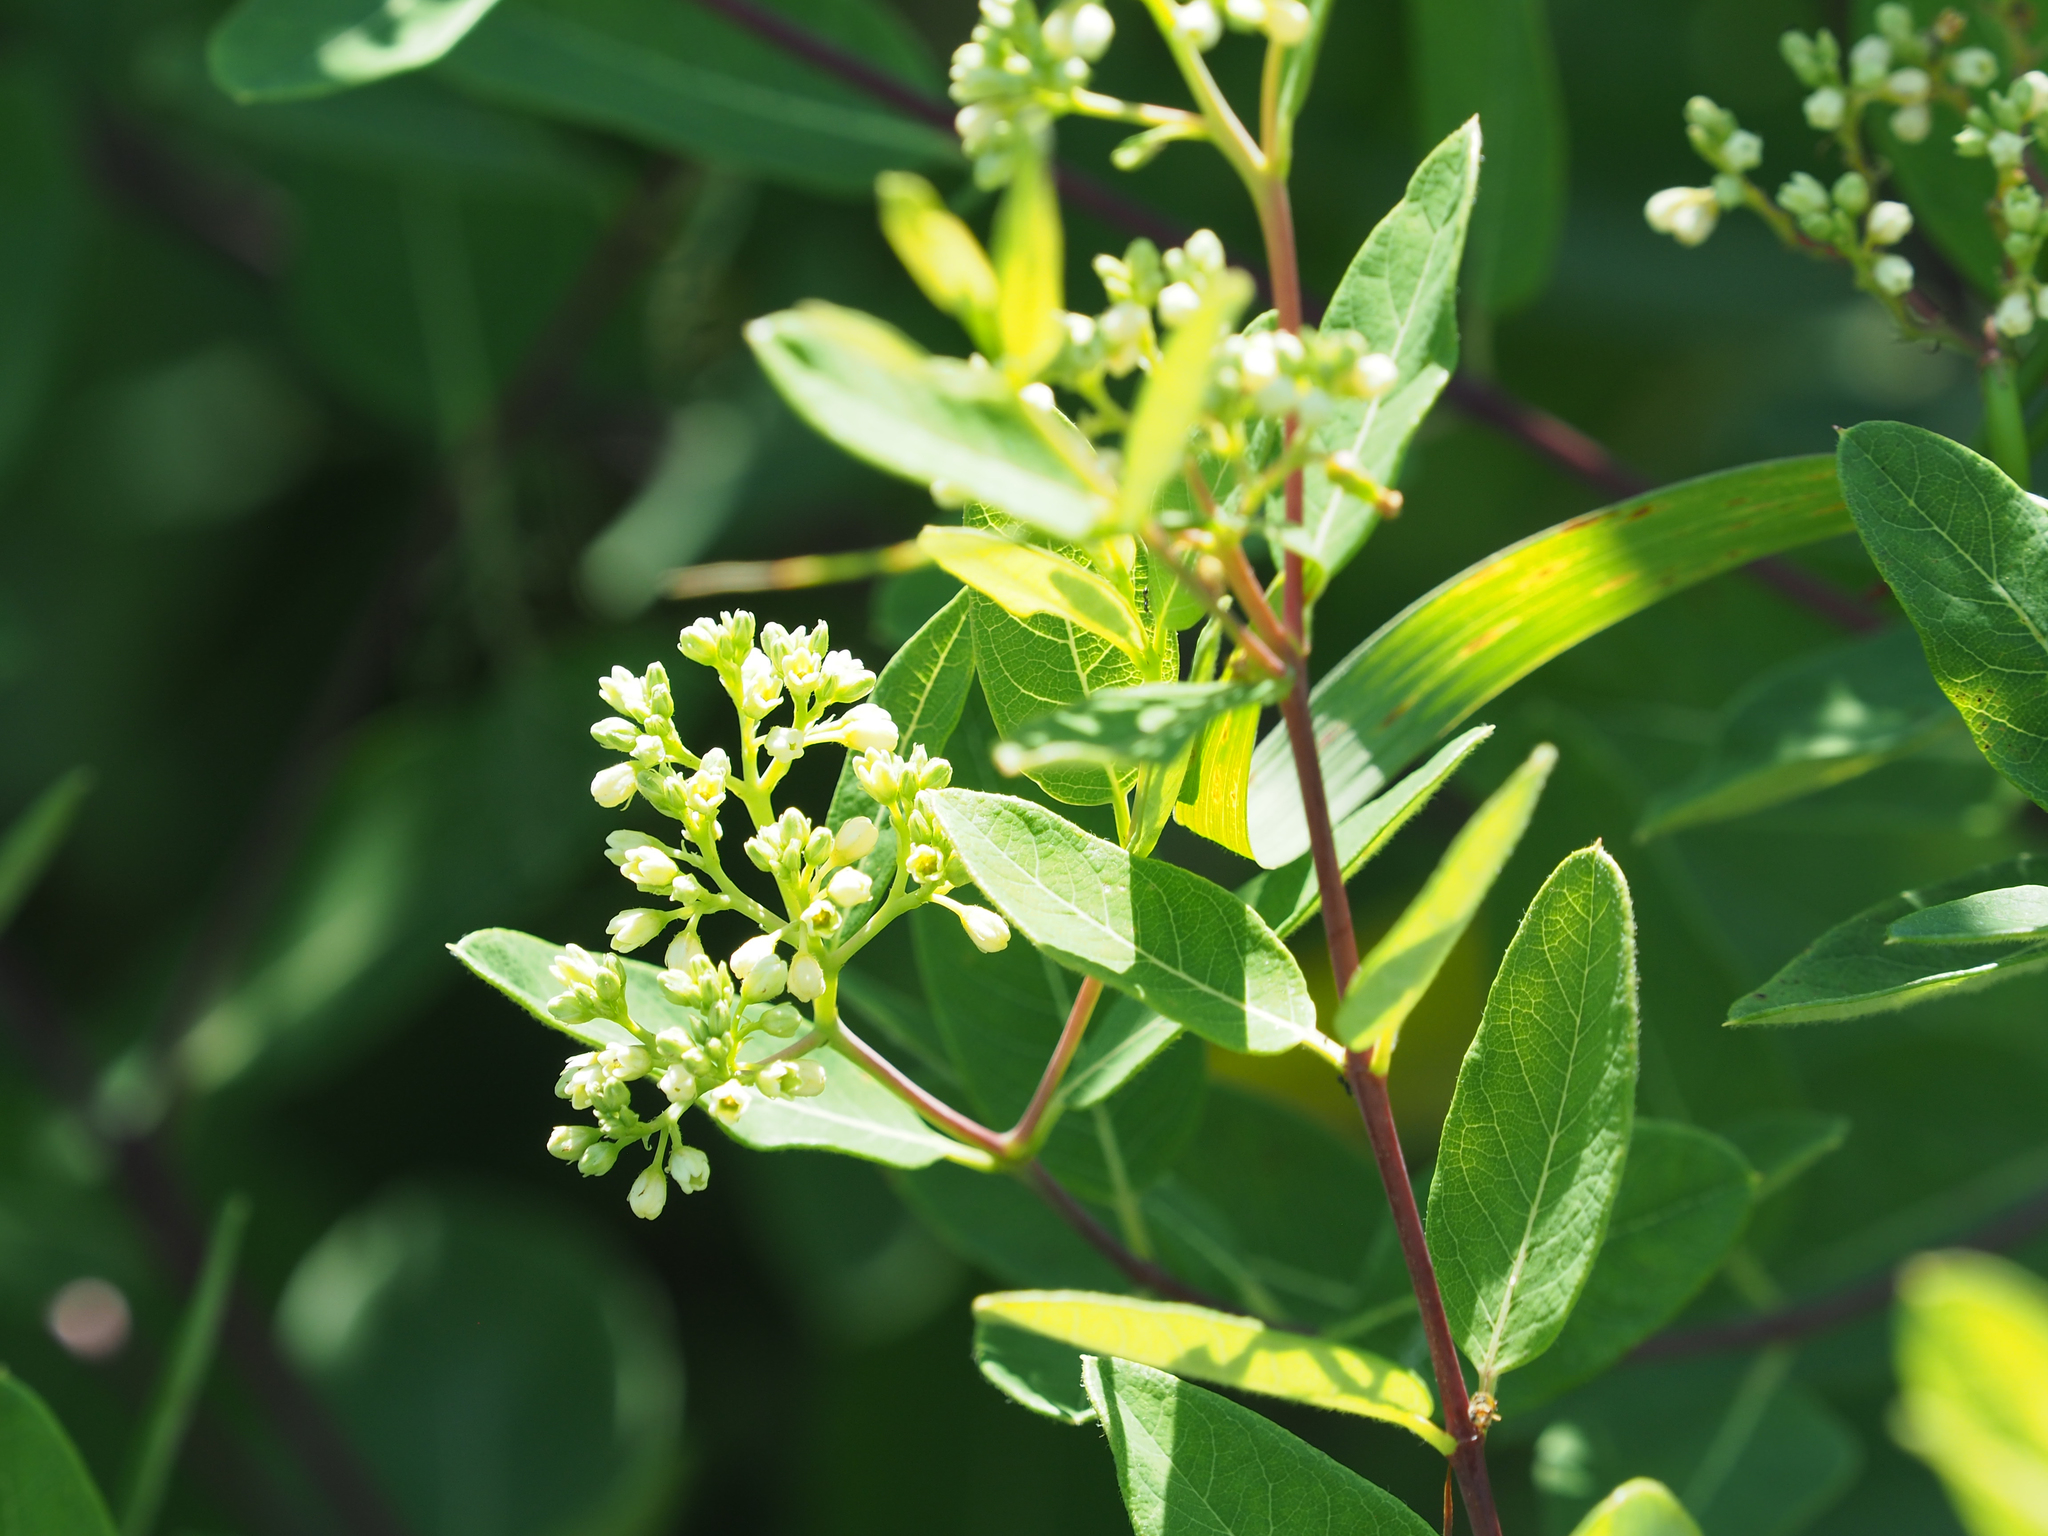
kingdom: Plantae
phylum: Tracheophyta
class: Magnoliopsida
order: Gentianales
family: Apocynaceae
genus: Apocynum
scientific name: Apocynum cannabinum
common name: Hemp dogbane
